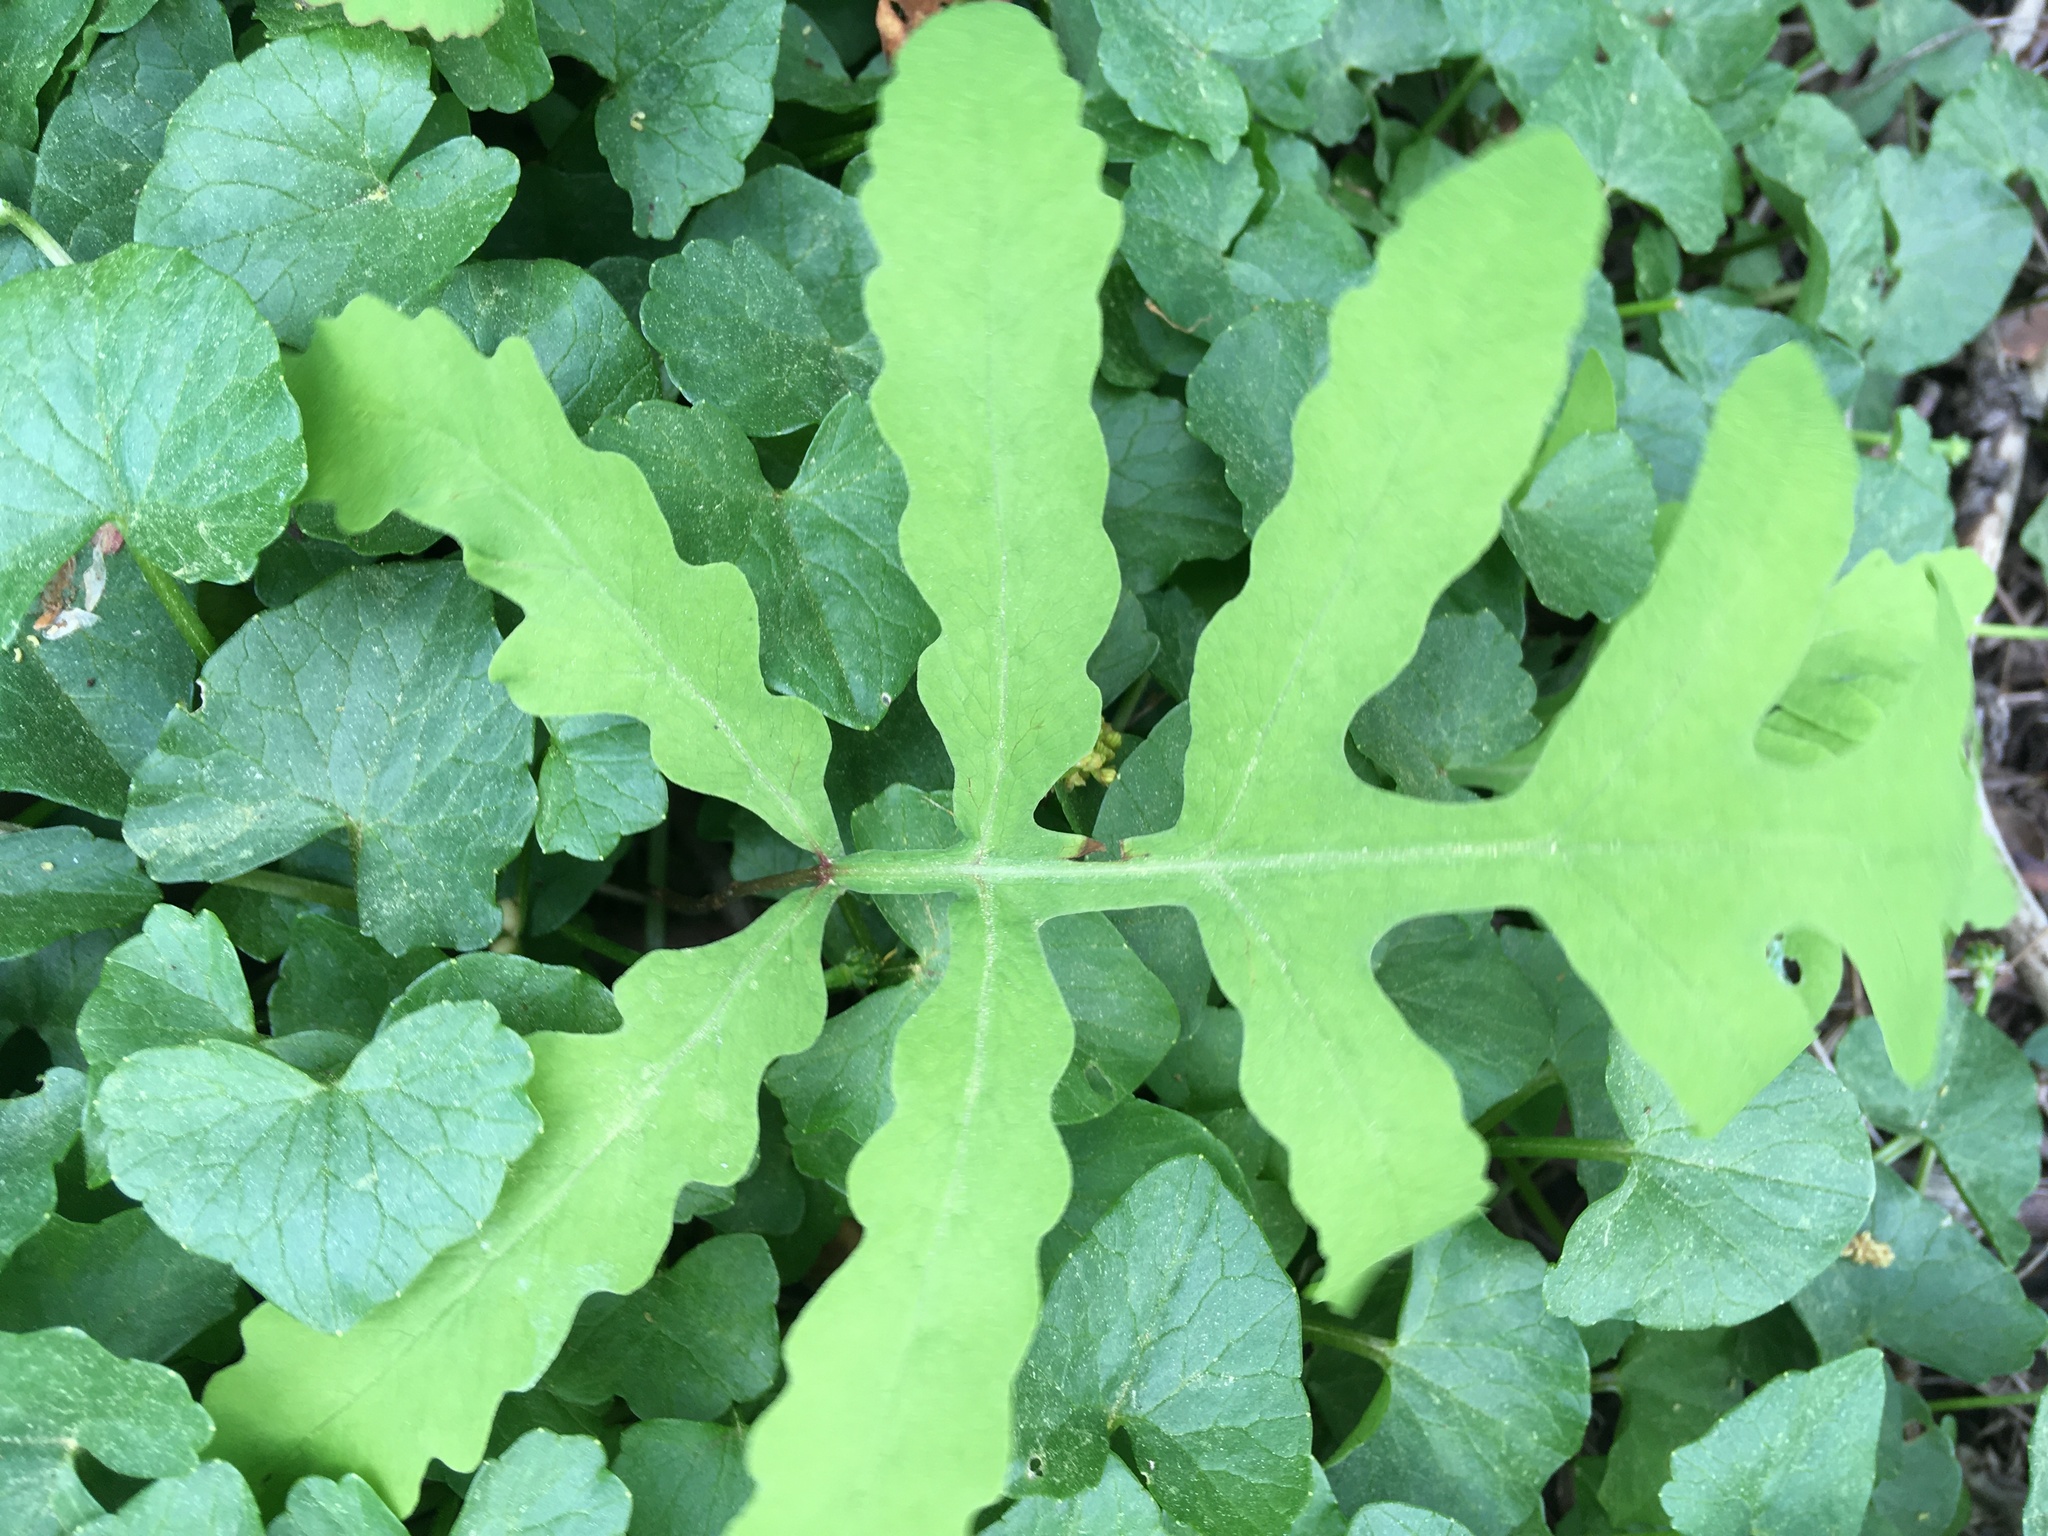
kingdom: Plantae
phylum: Tracheophyta
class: Polypodiopsida
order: Polypodiales
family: Onocleaceae
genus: Onoclea
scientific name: Onoclea sensibilis
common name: Sensitive fern
